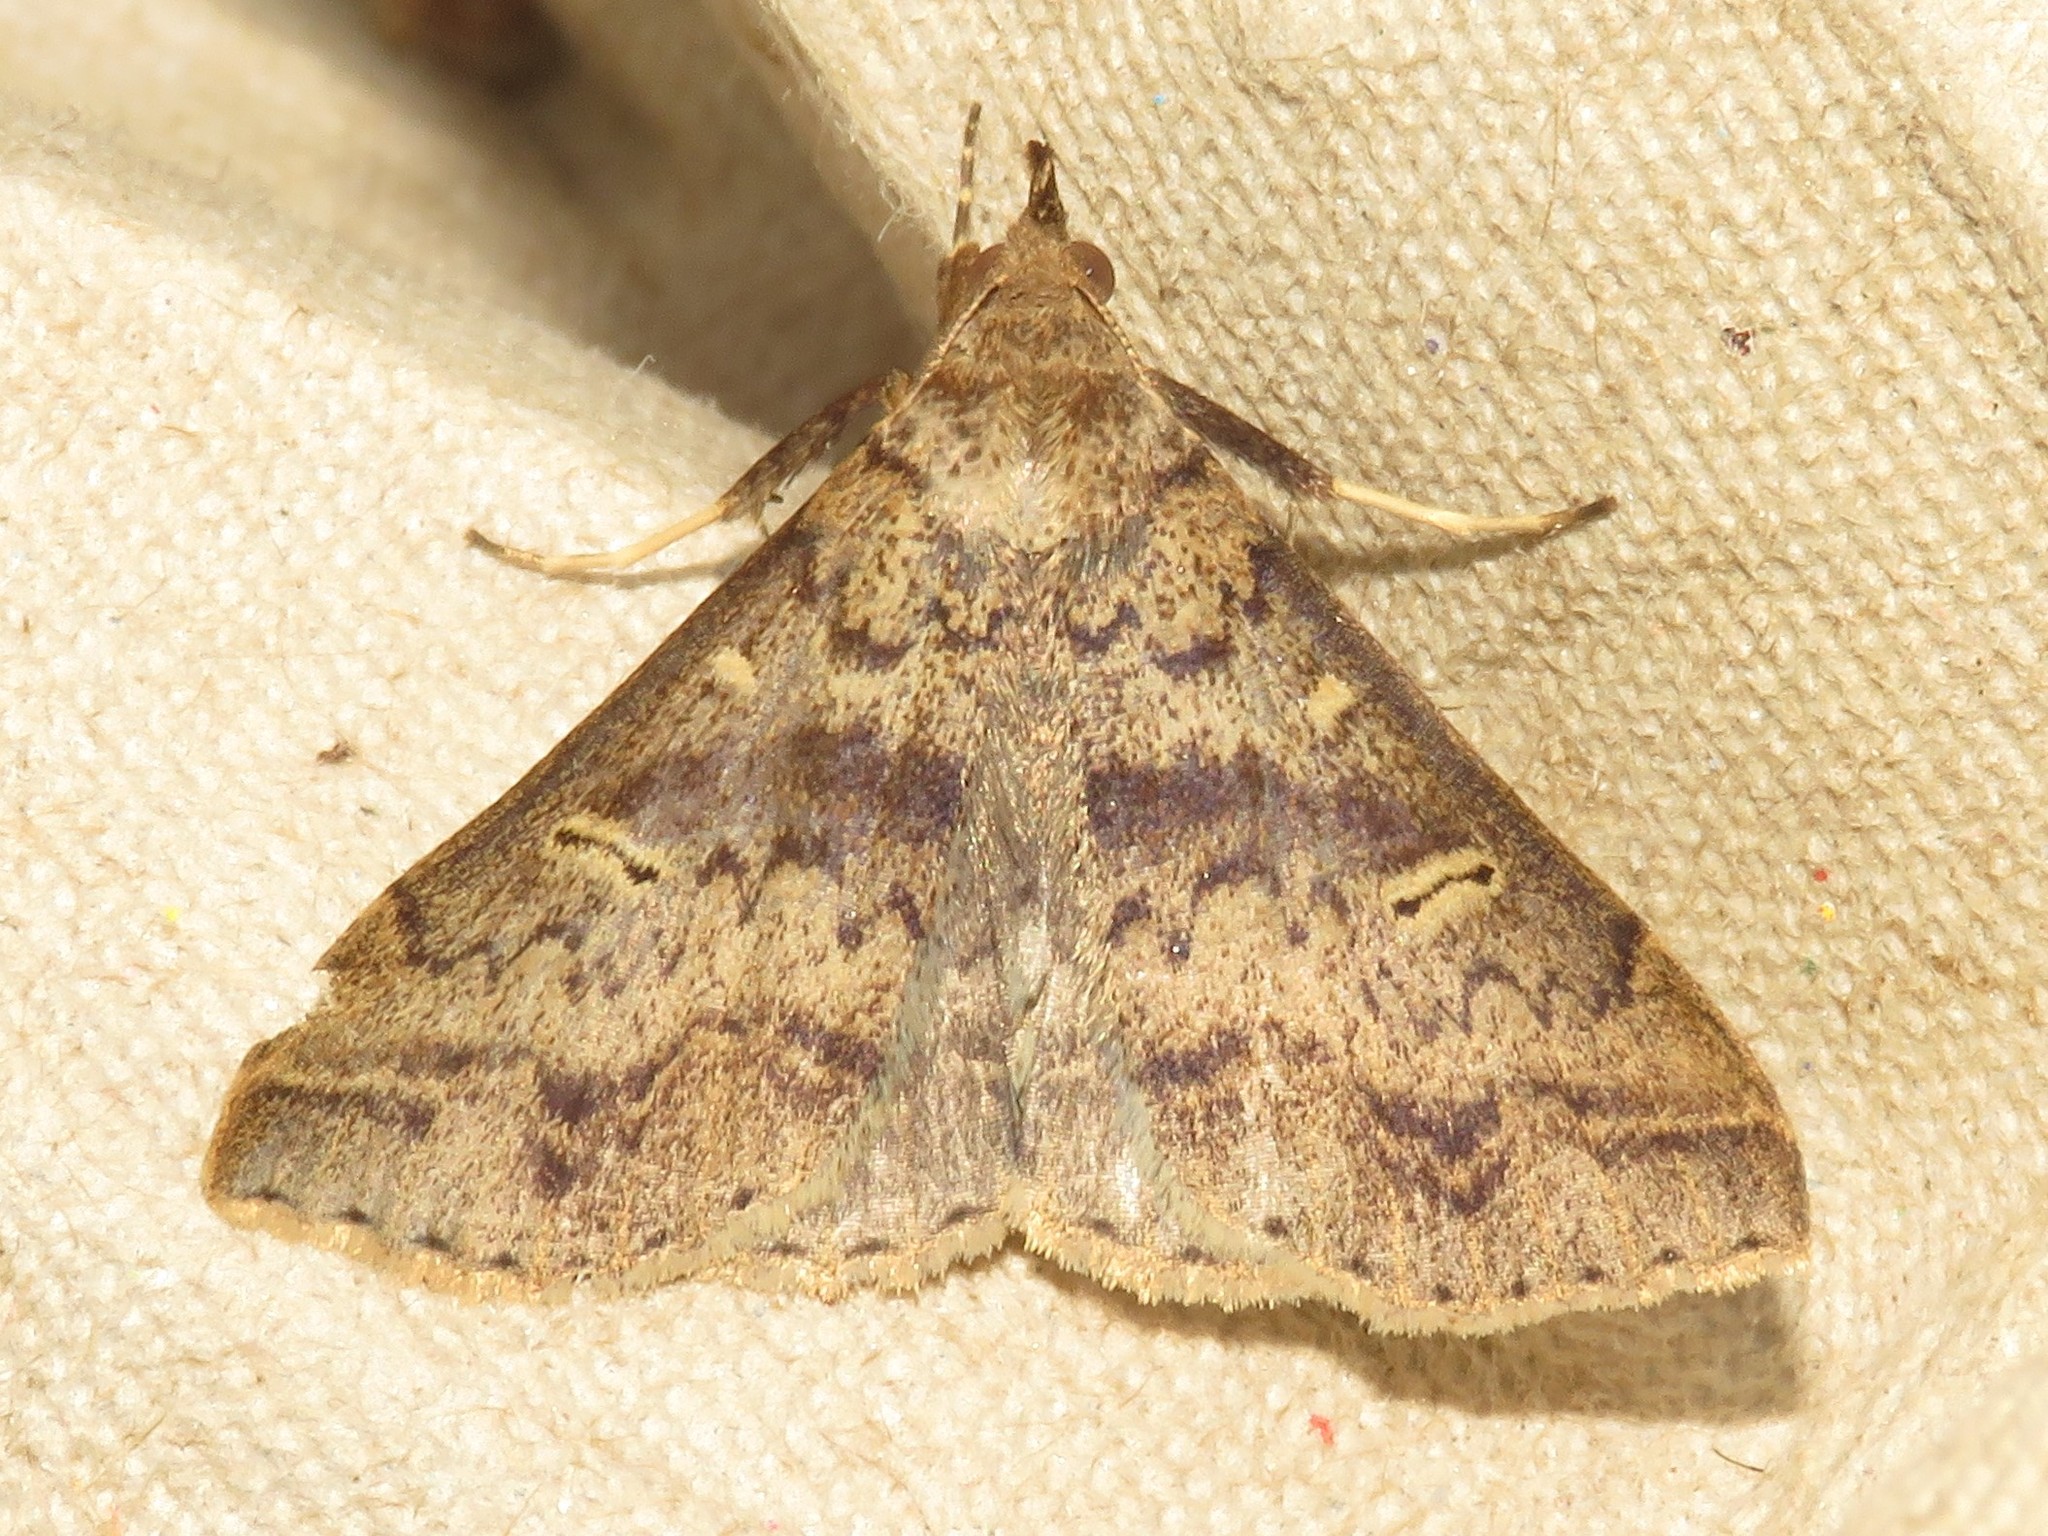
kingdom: Animalia
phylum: Arthropoda
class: Insecta
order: Lepidoptera
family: Erebidae
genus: Renia
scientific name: Renia discoloralis
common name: Discolored renia moth
